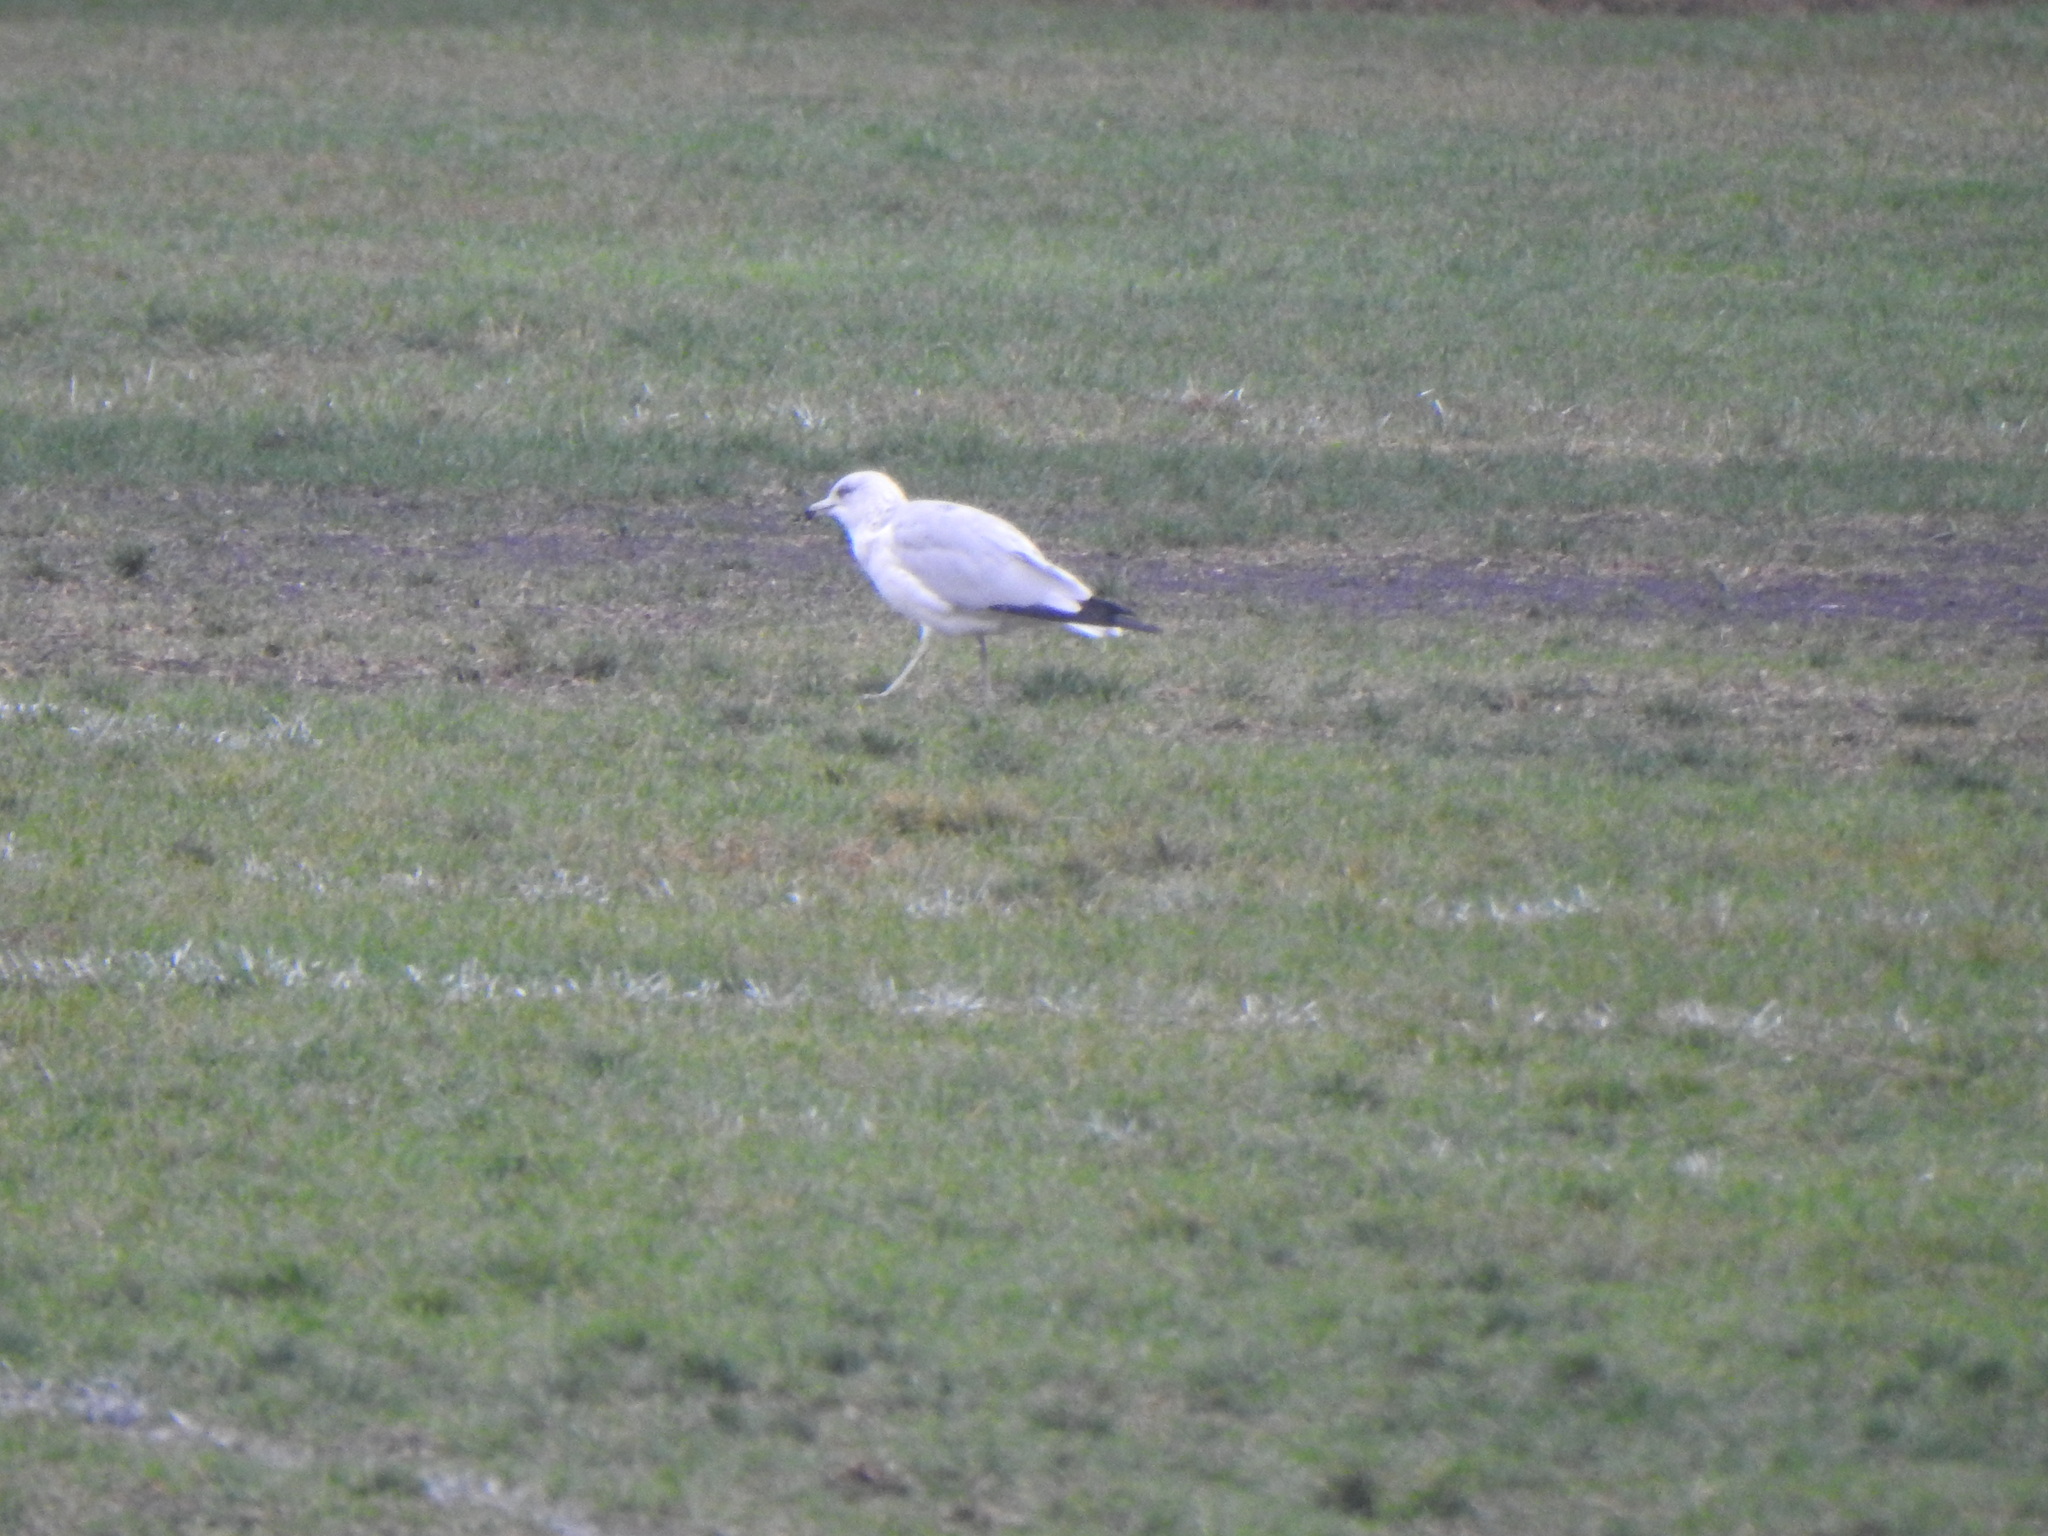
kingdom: Animalia
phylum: Chordata
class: Aves
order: Charadriiformes
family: Laridae
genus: Larus
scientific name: Larus delawarensis
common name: Ring-billed gull
